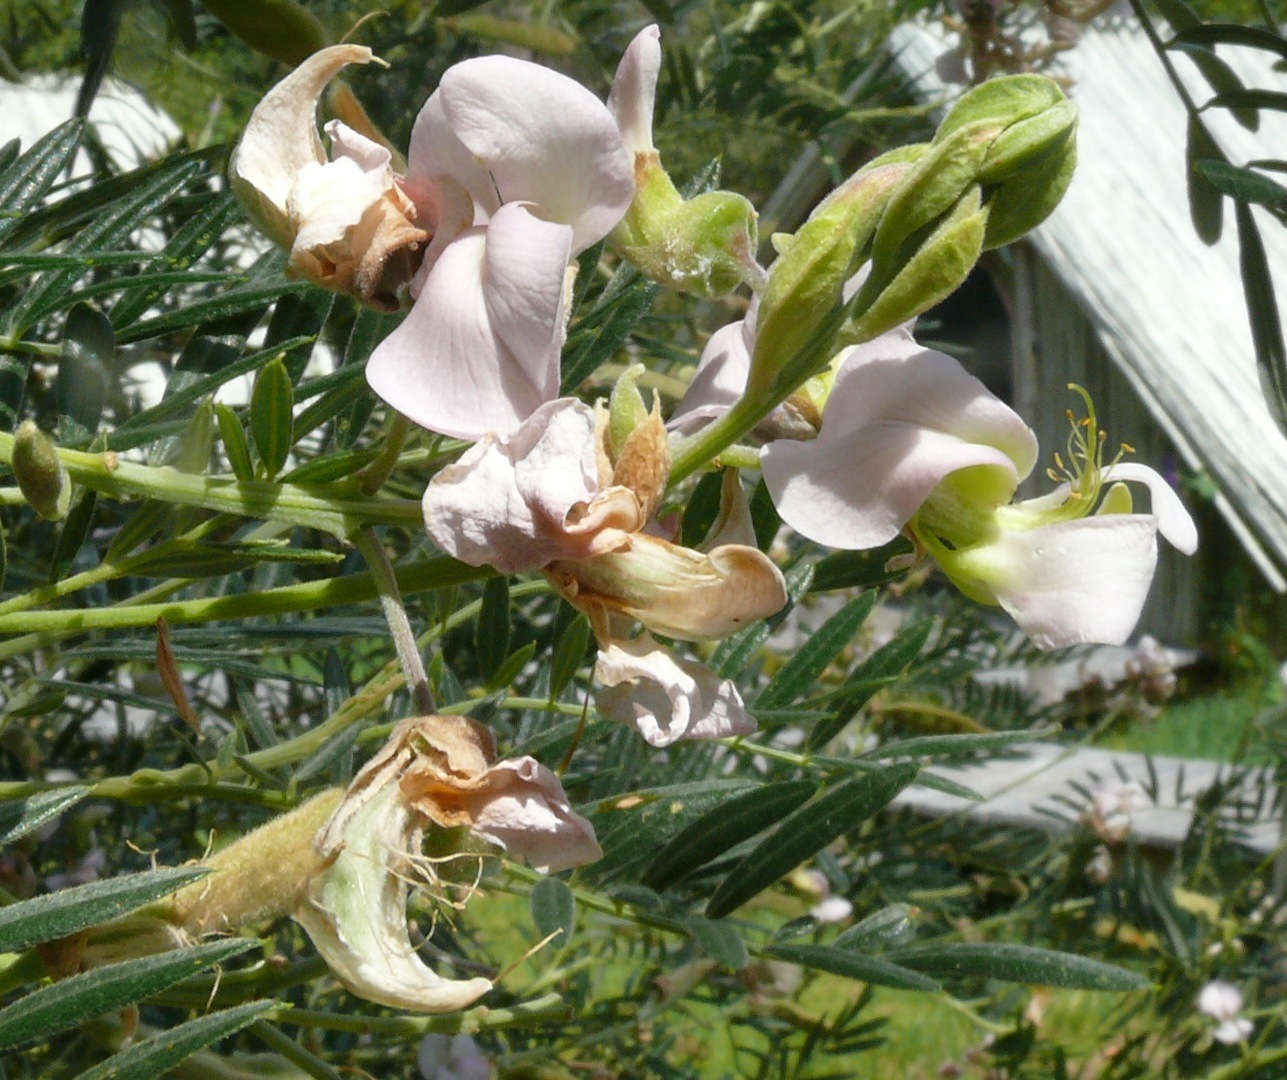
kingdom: Plantae
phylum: Tracheophyta
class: Magnoliopsida
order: Fabales
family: Fabaceae
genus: Virgilia
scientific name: Virgilia oroboides
